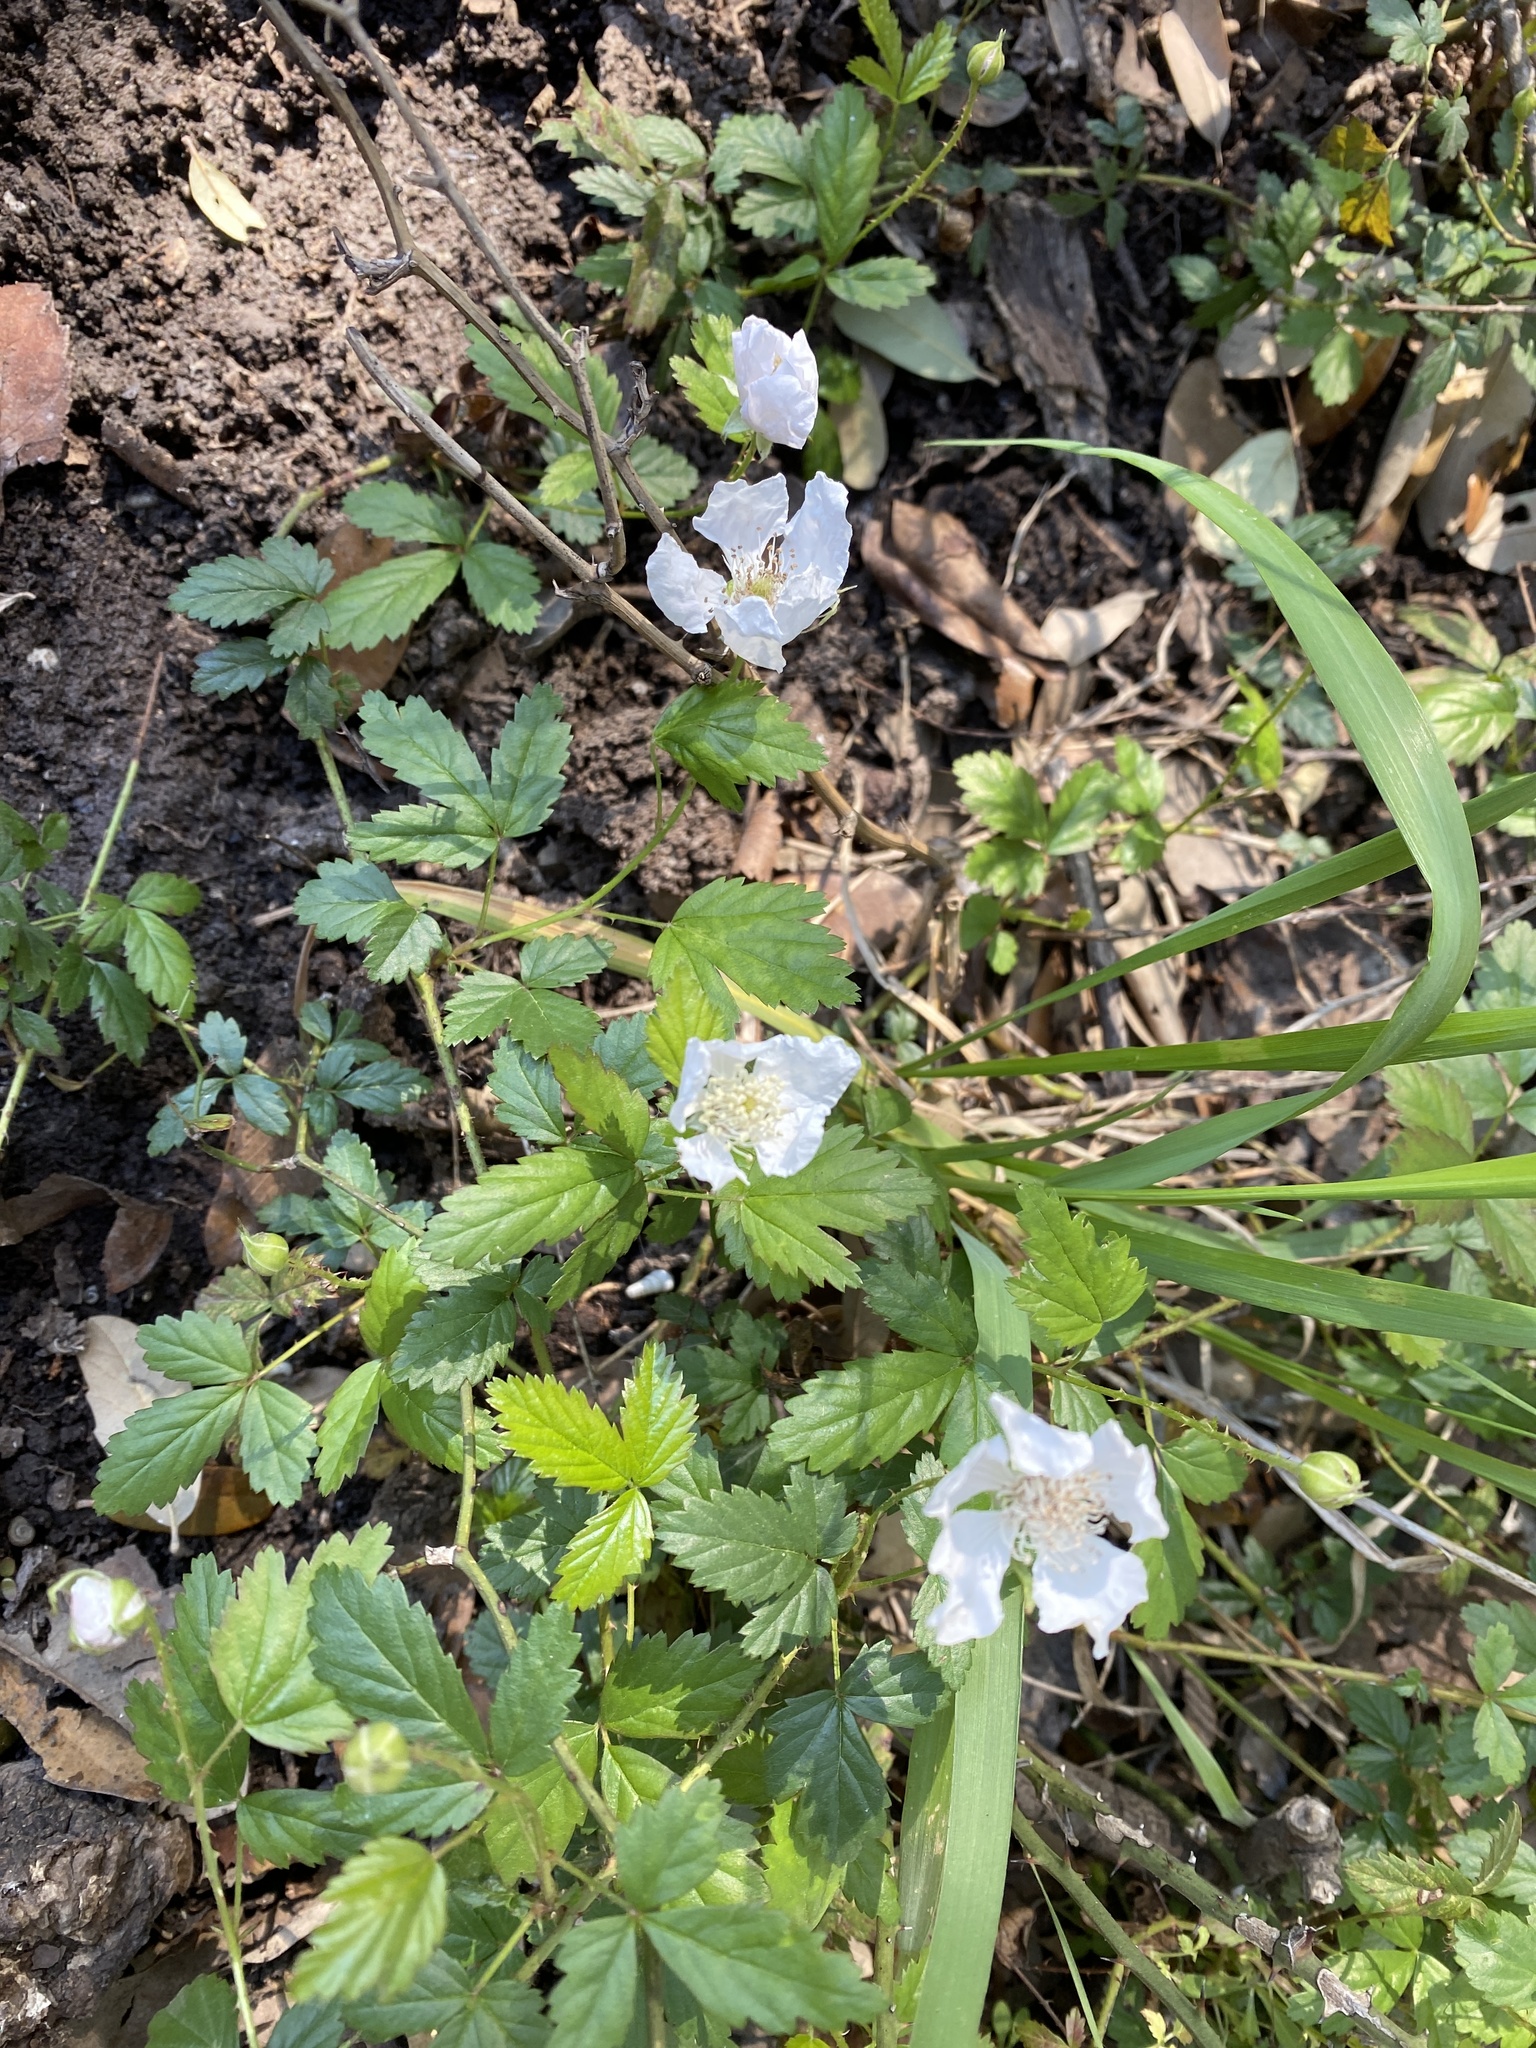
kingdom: Plantae
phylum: Tracheophyta
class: Magnoliopsida
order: Rosales
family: Rosaceae
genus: Rubus
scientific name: Rubus trivialis
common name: Southern dewberry
